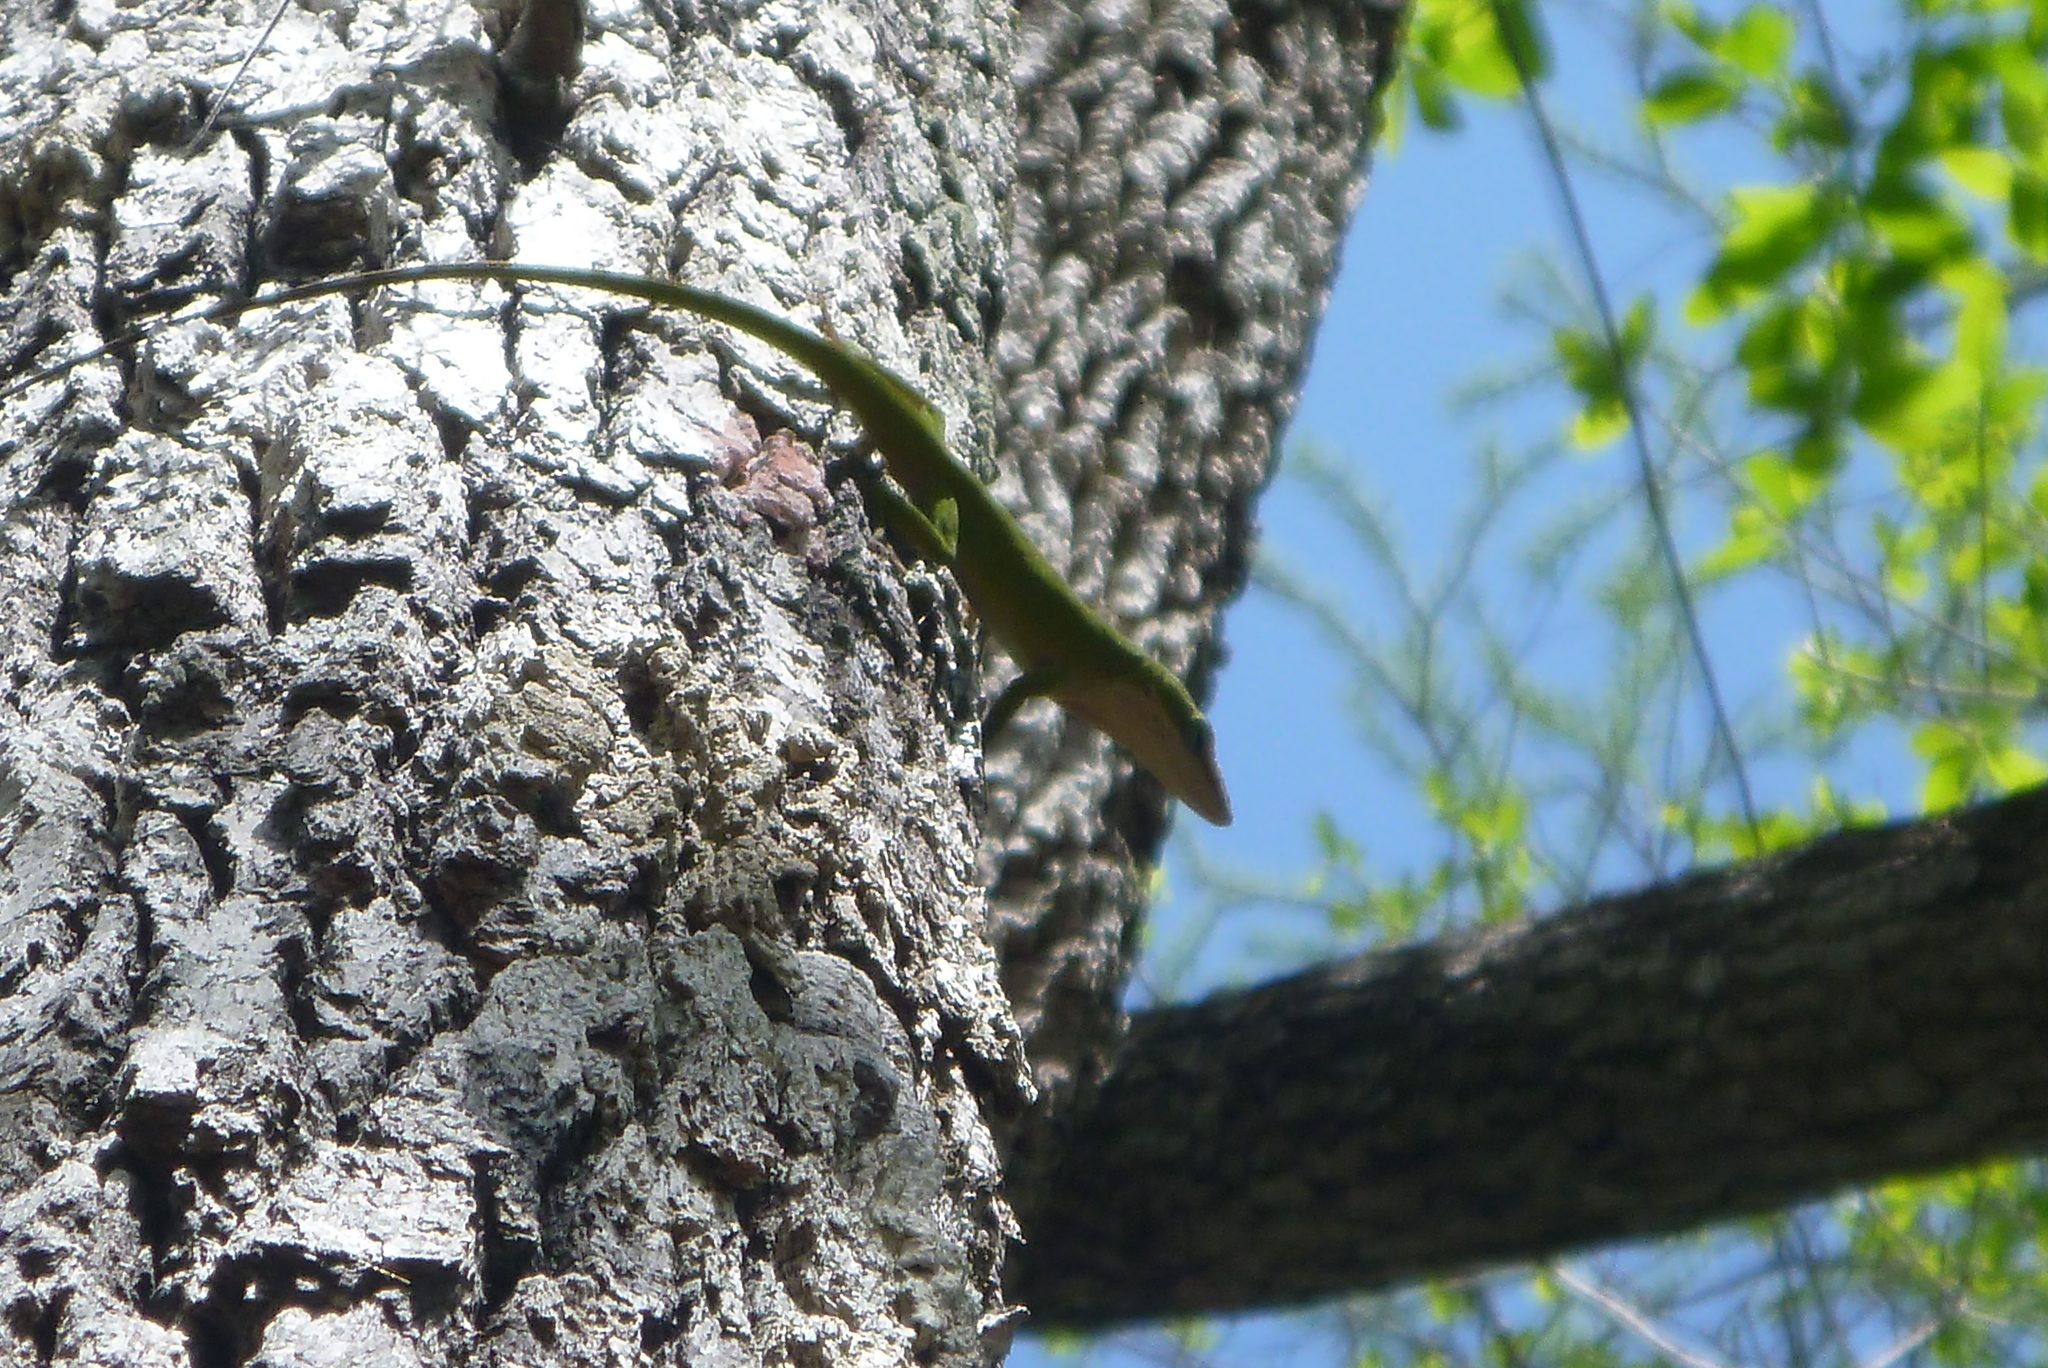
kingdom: Animalia
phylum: Chordata
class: Squamata
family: Dactyloidae
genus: Anolis
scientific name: Anolis carolinensis
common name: Green anole
